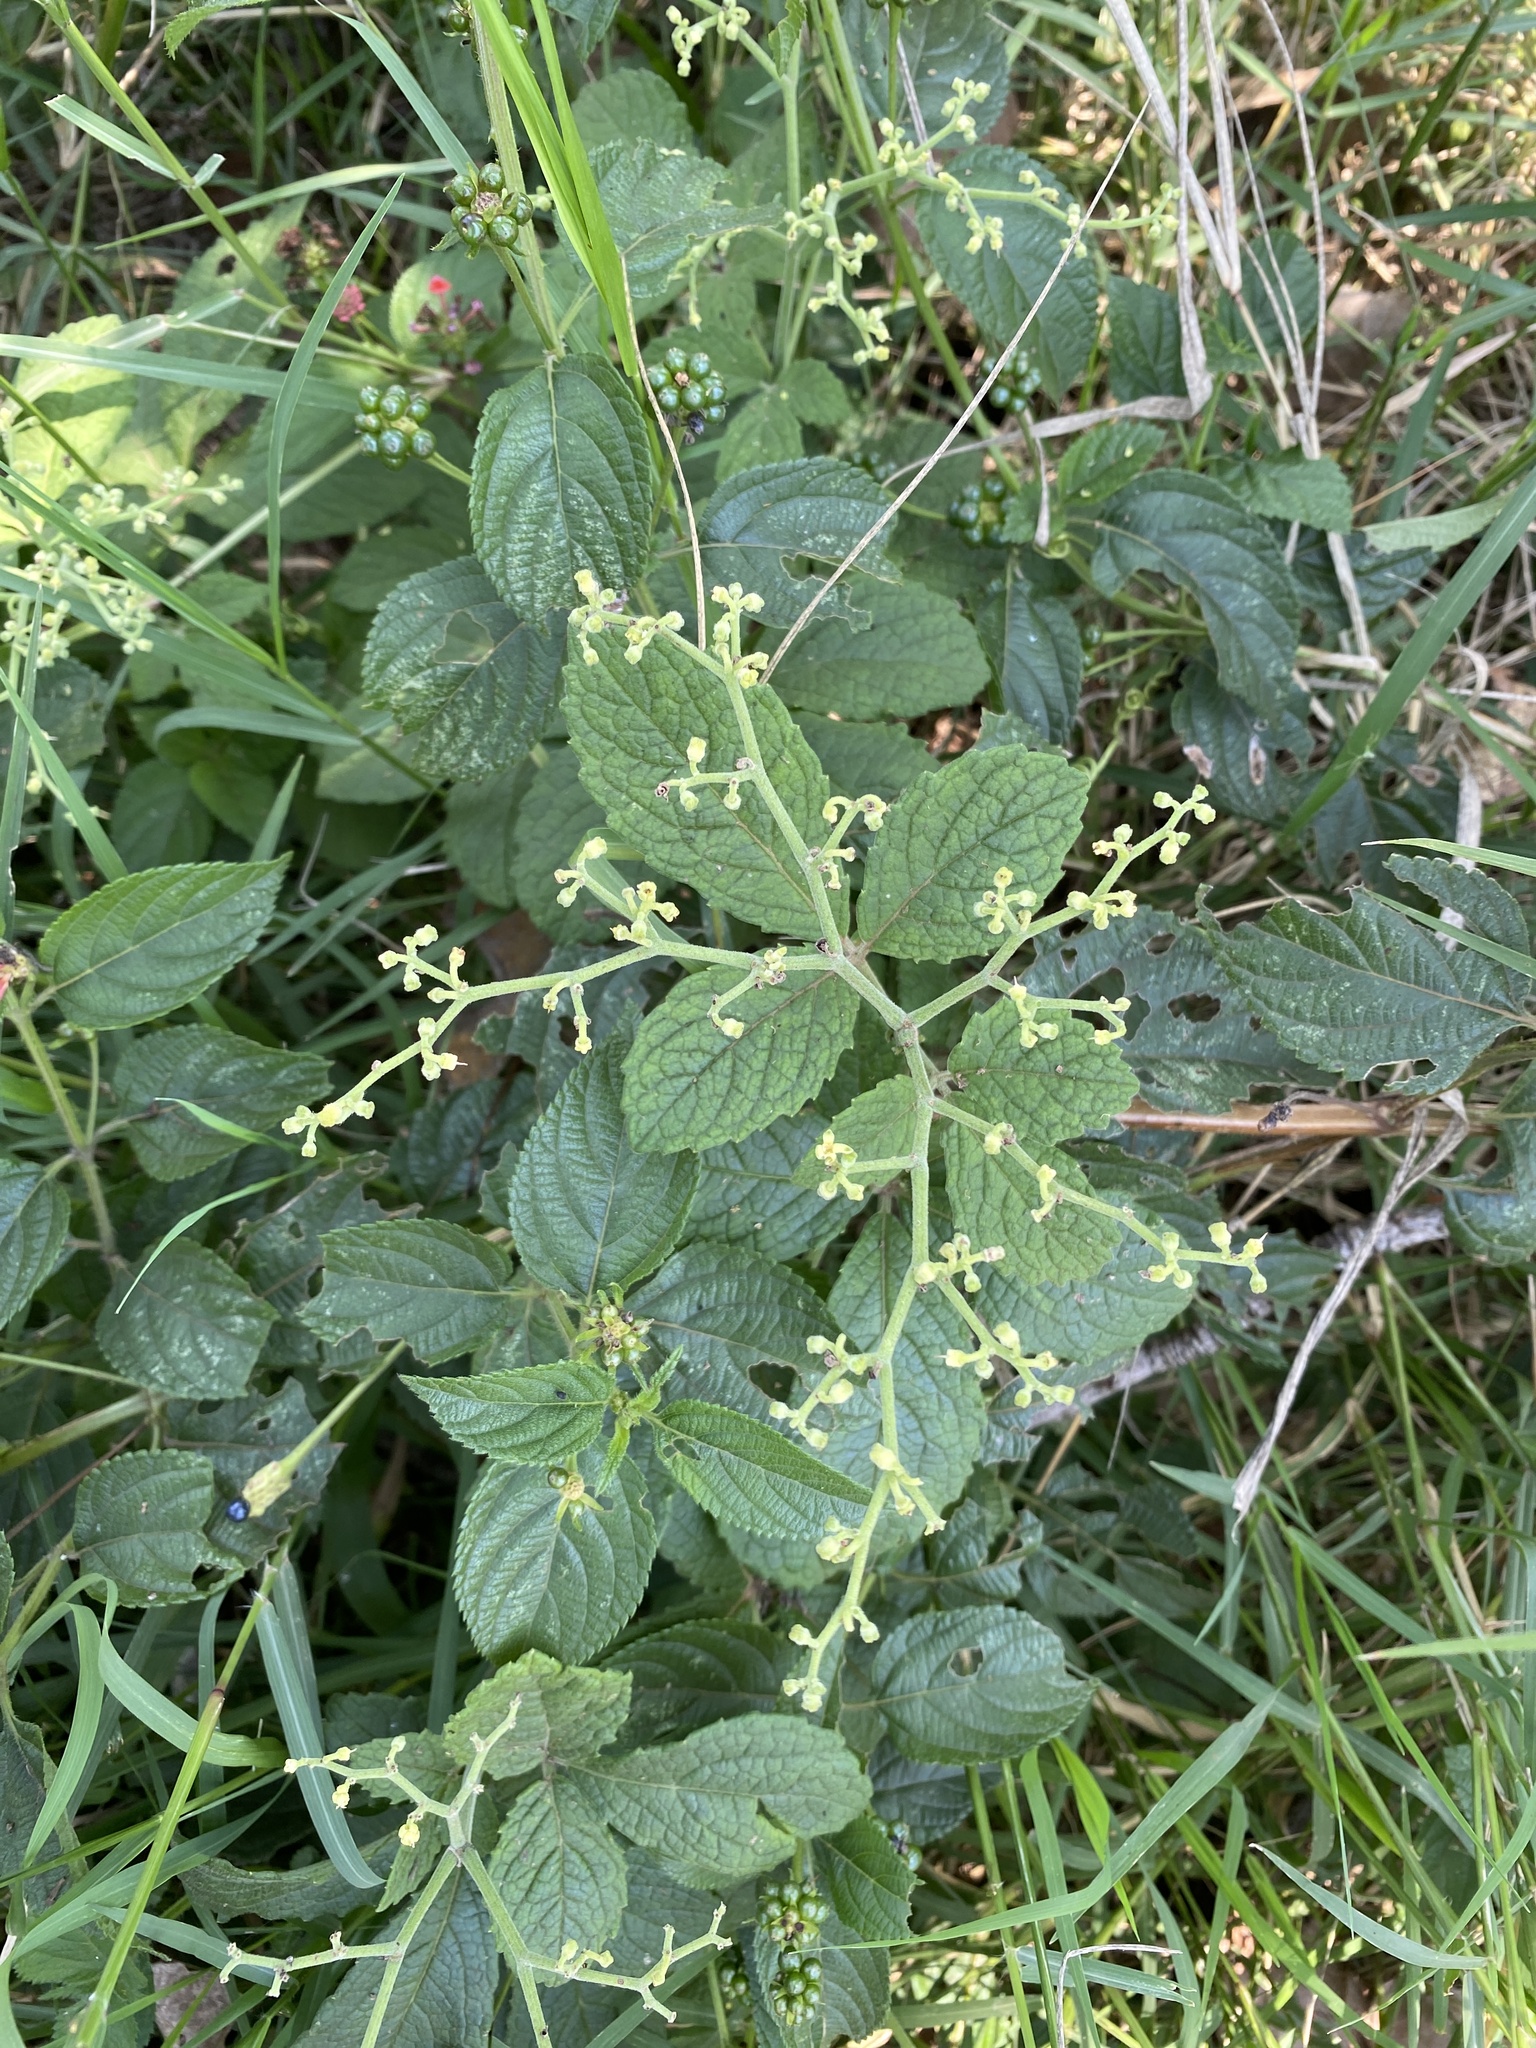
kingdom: Plantae
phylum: Tracheophyta
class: Magnoliopsida
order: Vitales
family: Vitaceae
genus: Cyphostemma
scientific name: Cyphostemma cirrhosum
